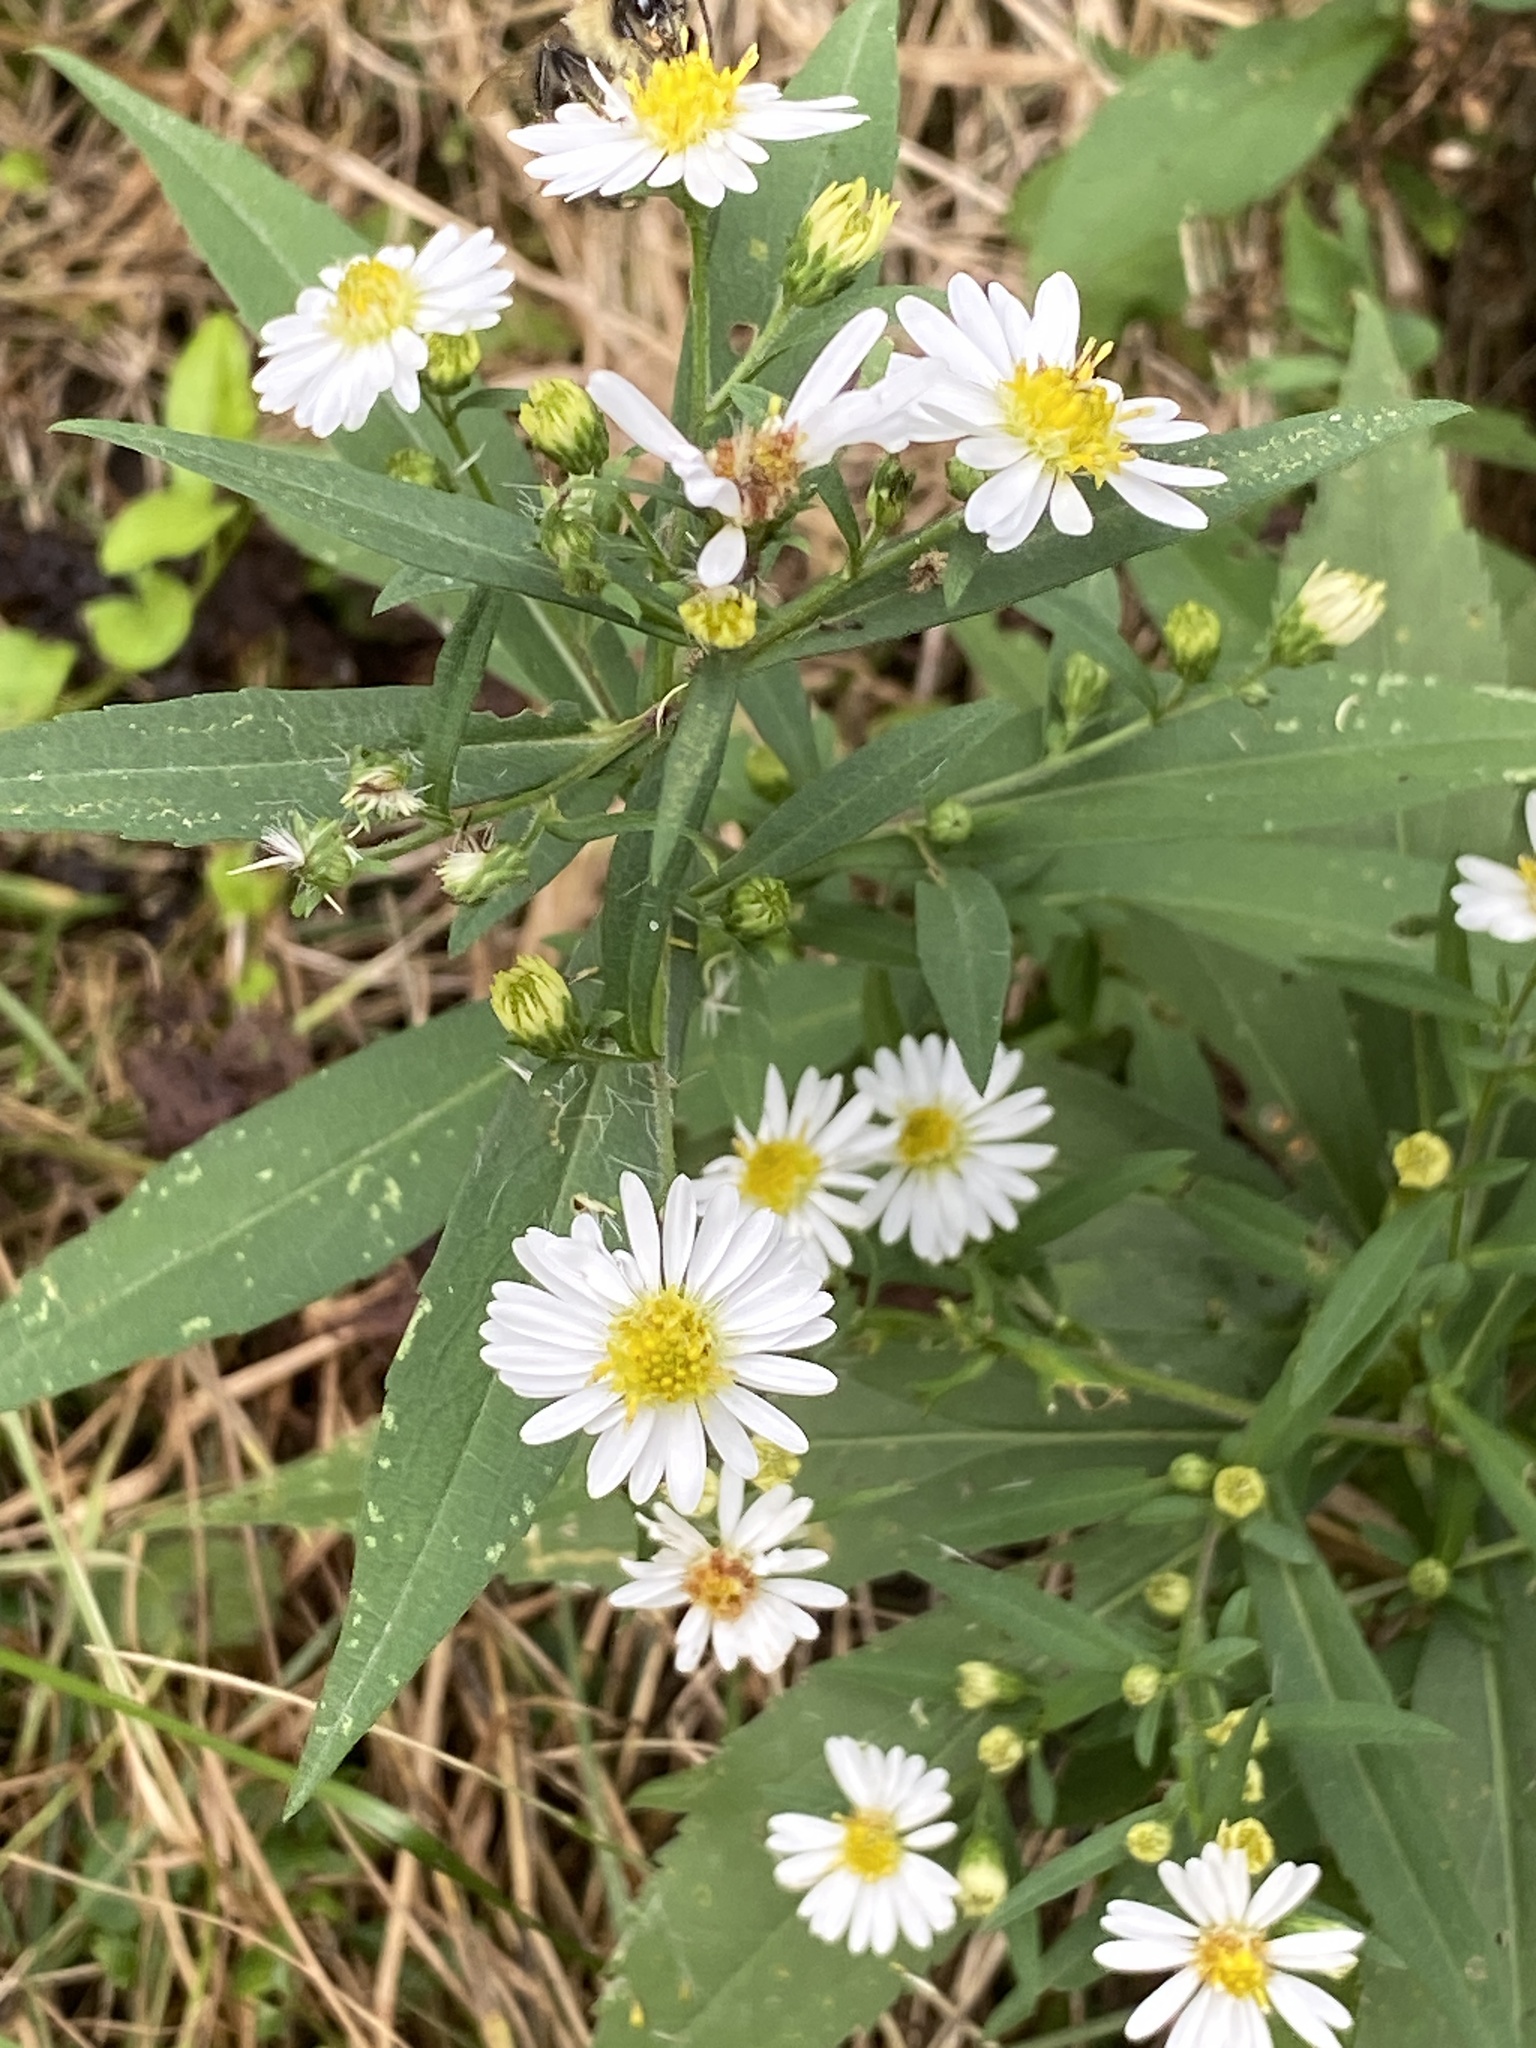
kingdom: Plantae
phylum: Tracheophyta
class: Magnoliopsida
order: Asterales
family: Asteraceae
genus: Symphyotrichum
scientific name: Symphyotrichum lanceolatum
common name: Panicled aster
